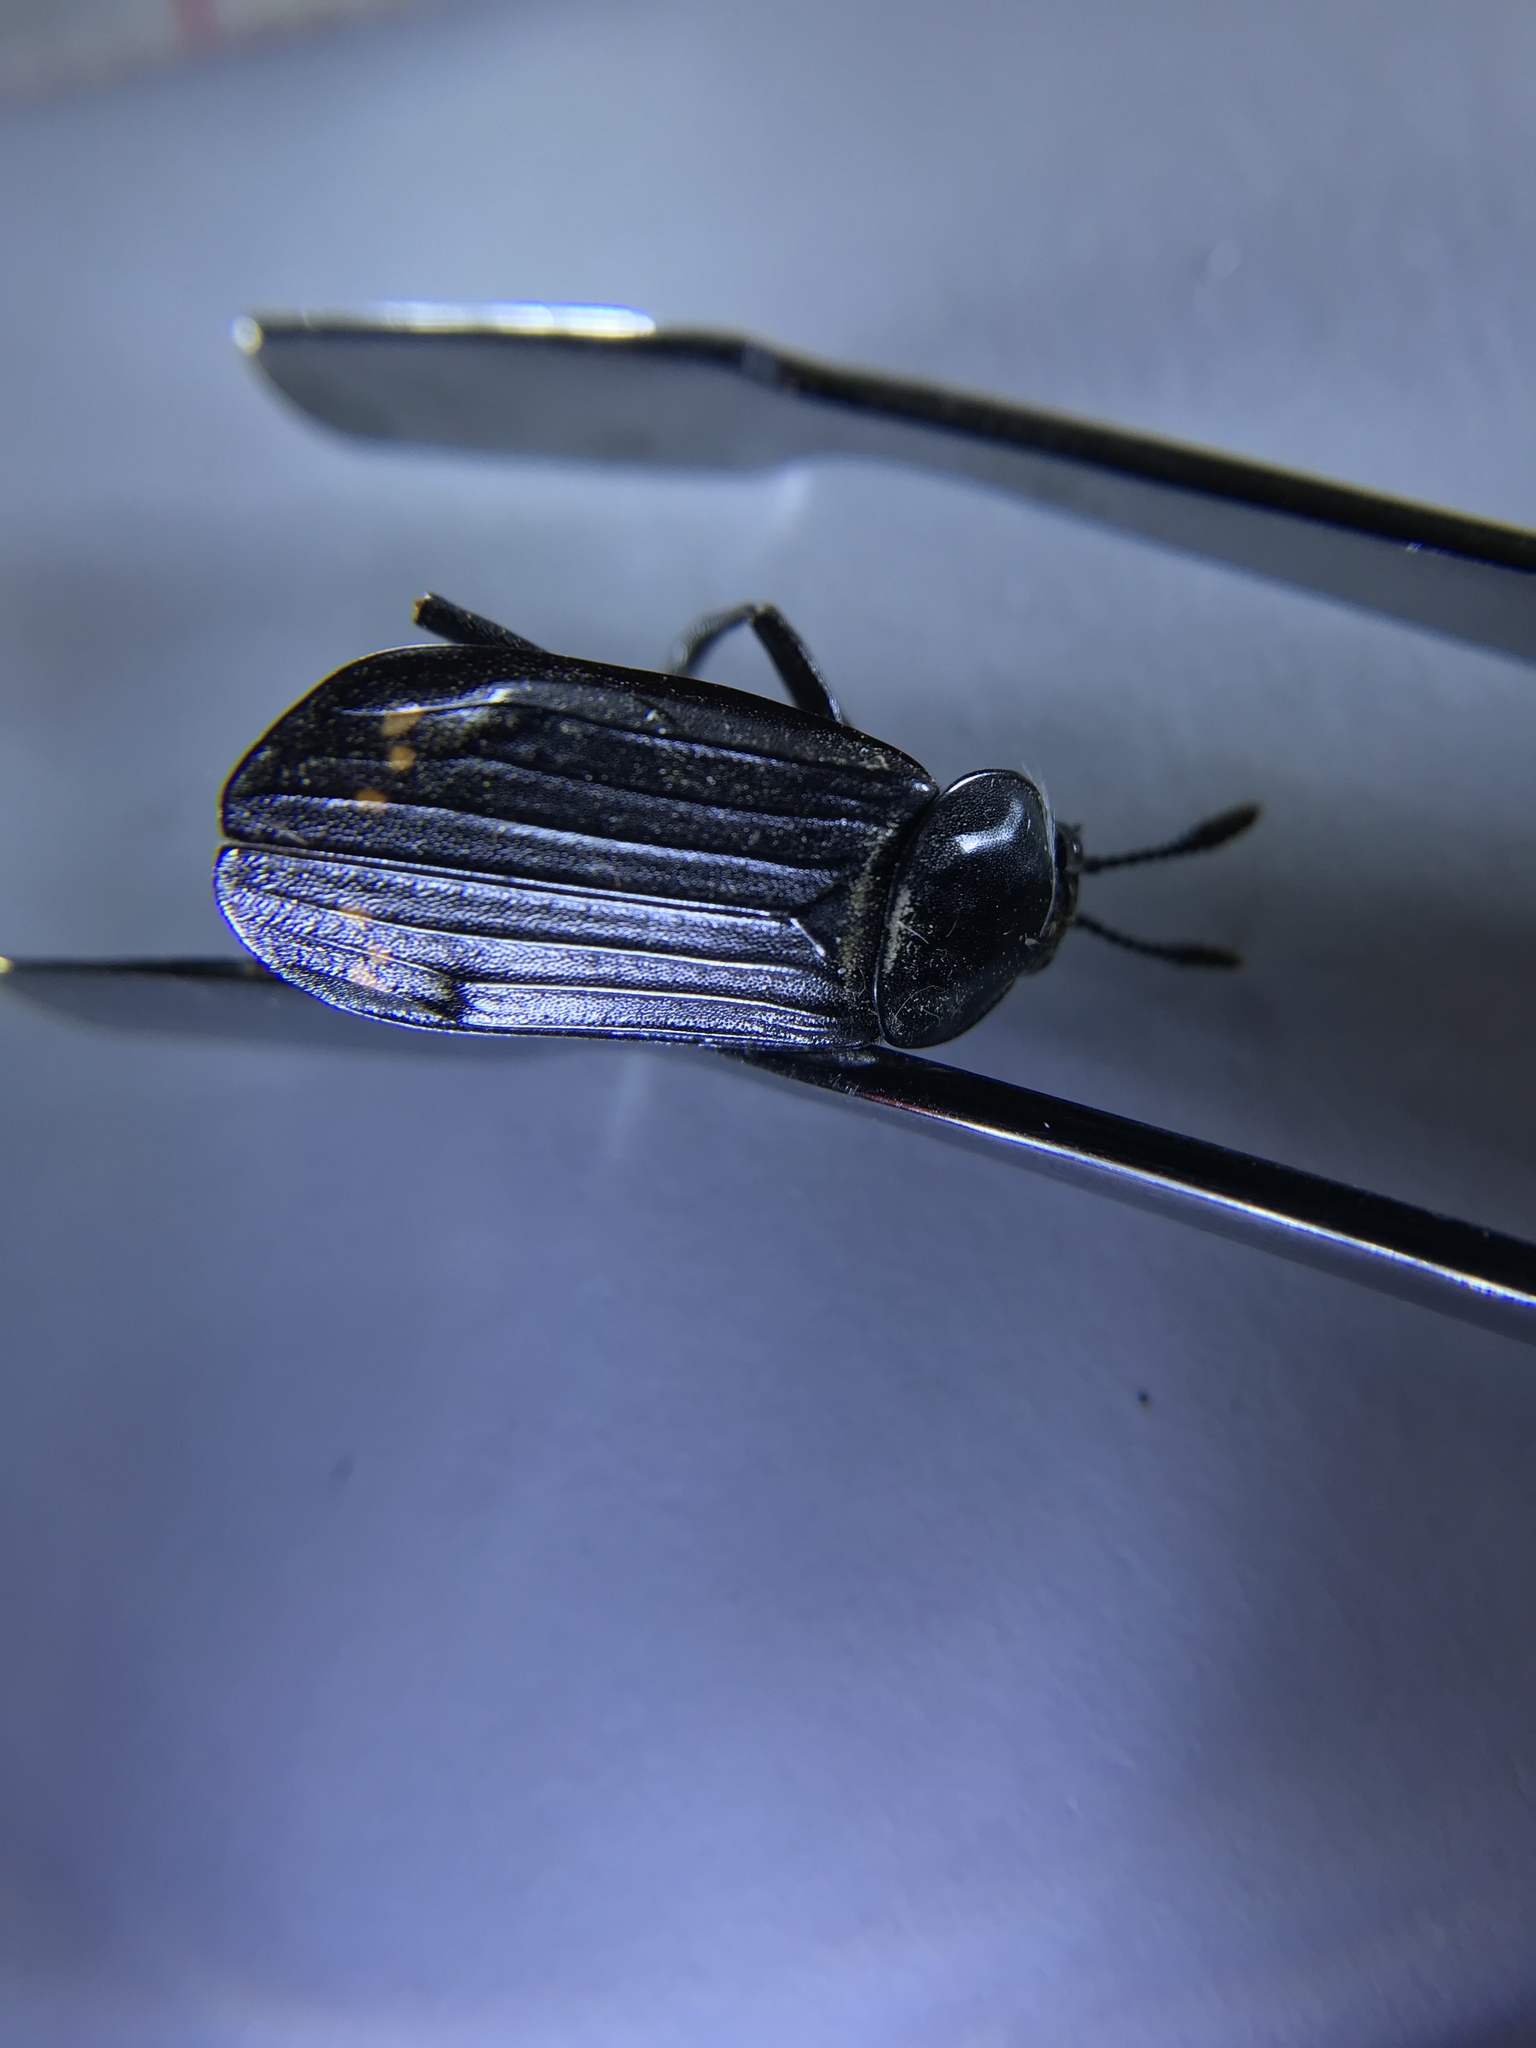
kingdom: Animalia
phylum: Arthropoda
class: Insecta
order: Coleoptera
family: Staphylinidae
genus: Necrodes
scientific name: Necrodes surinamensis
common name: Red-lined carrion beetle
